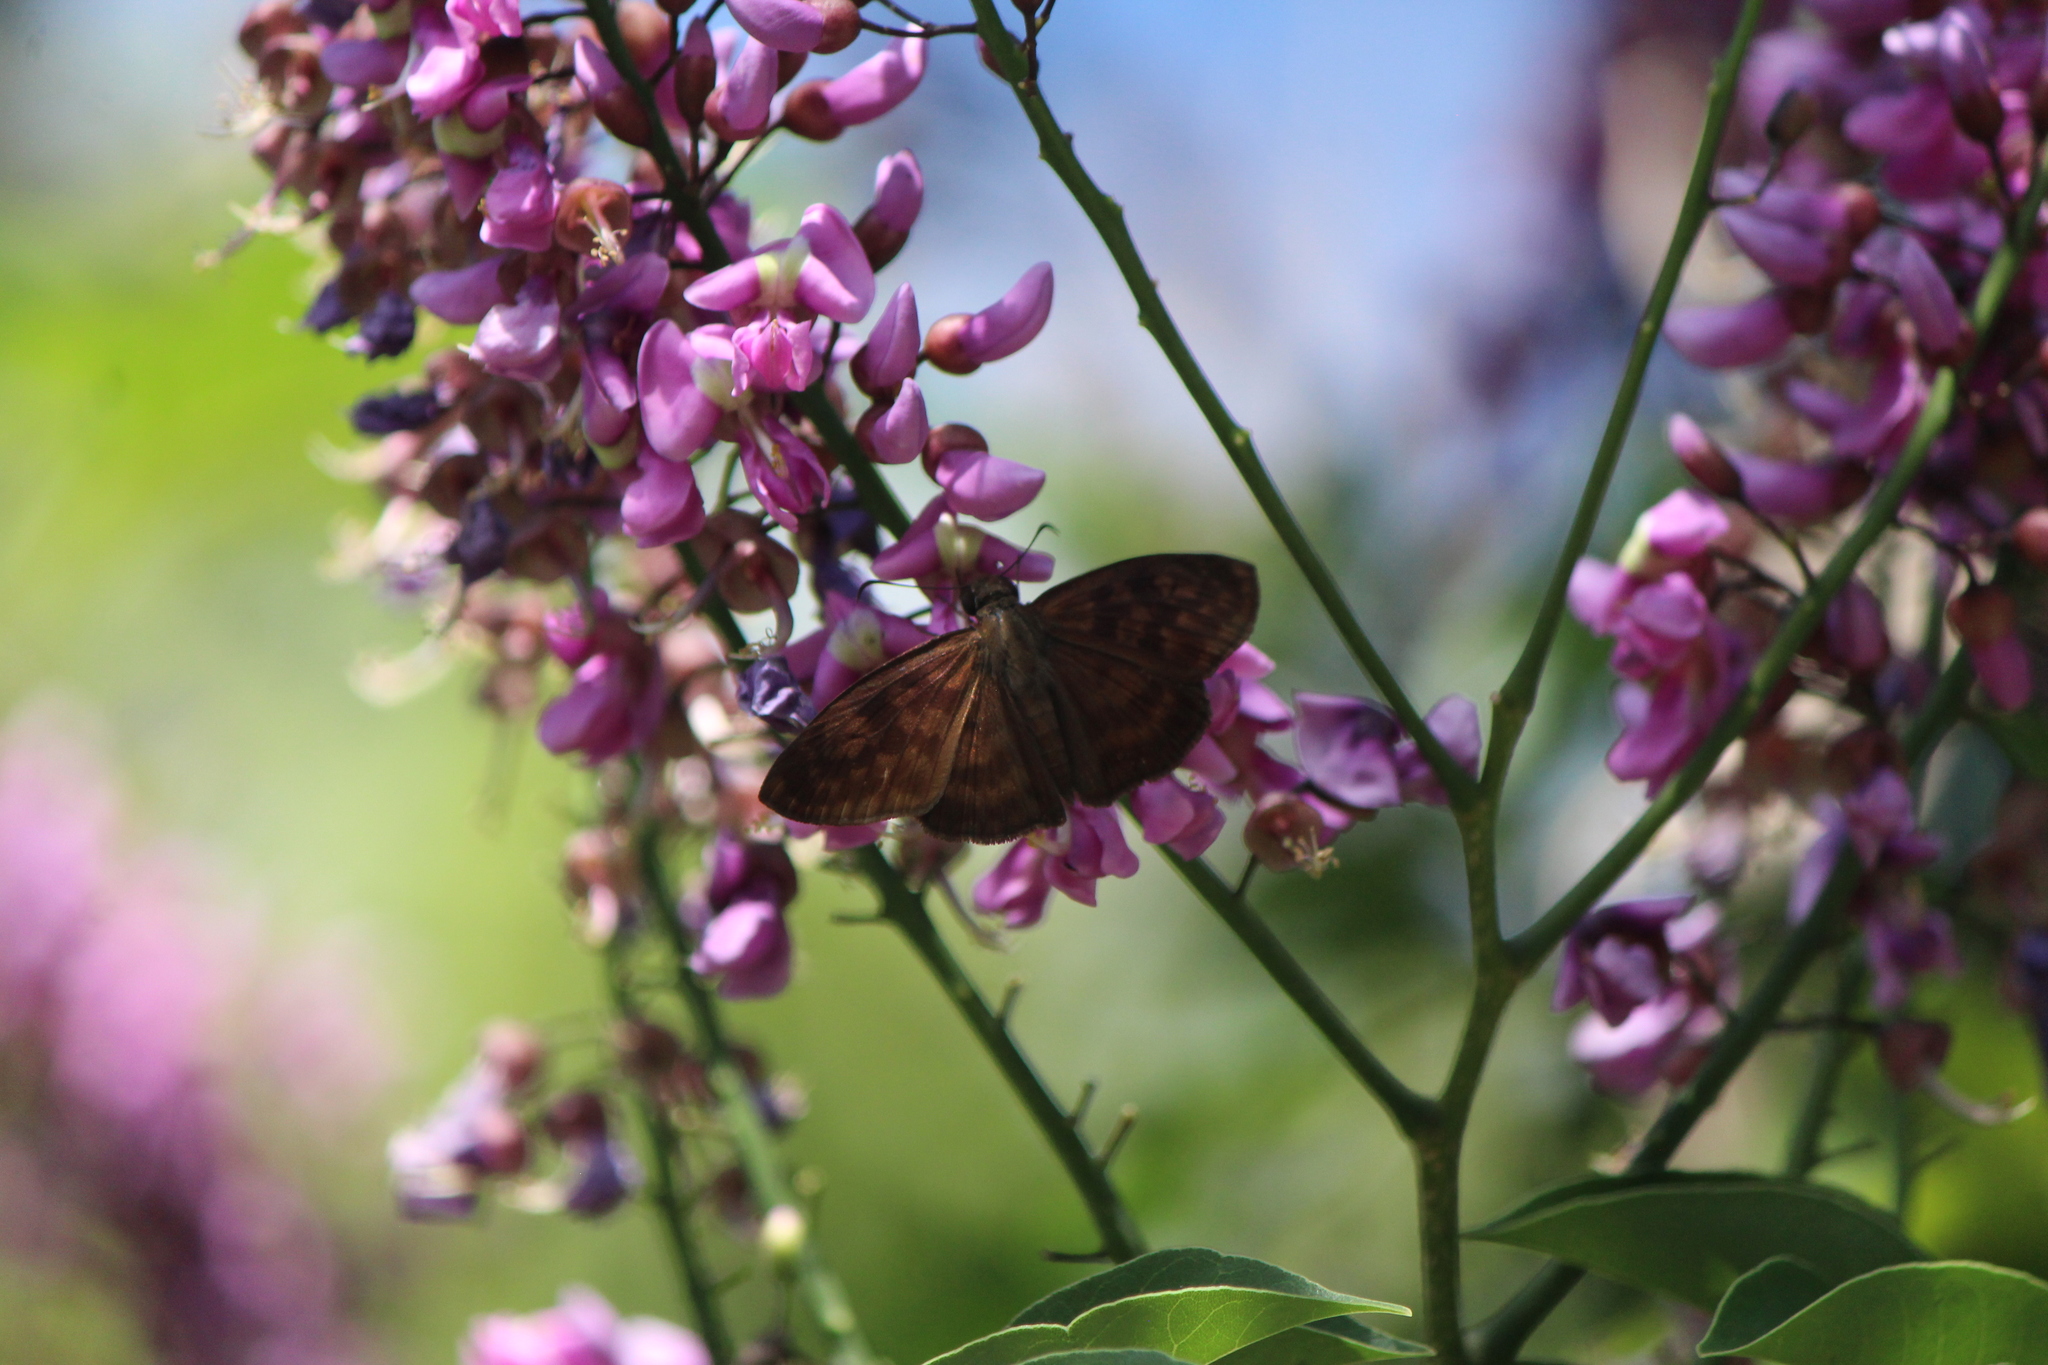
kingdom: Animalia
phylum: Arthropoda
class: Insecta
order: Lepidoptera
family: Hesperiidae
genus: Anastrus
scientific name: Anastrus Echelatus sempiternus
